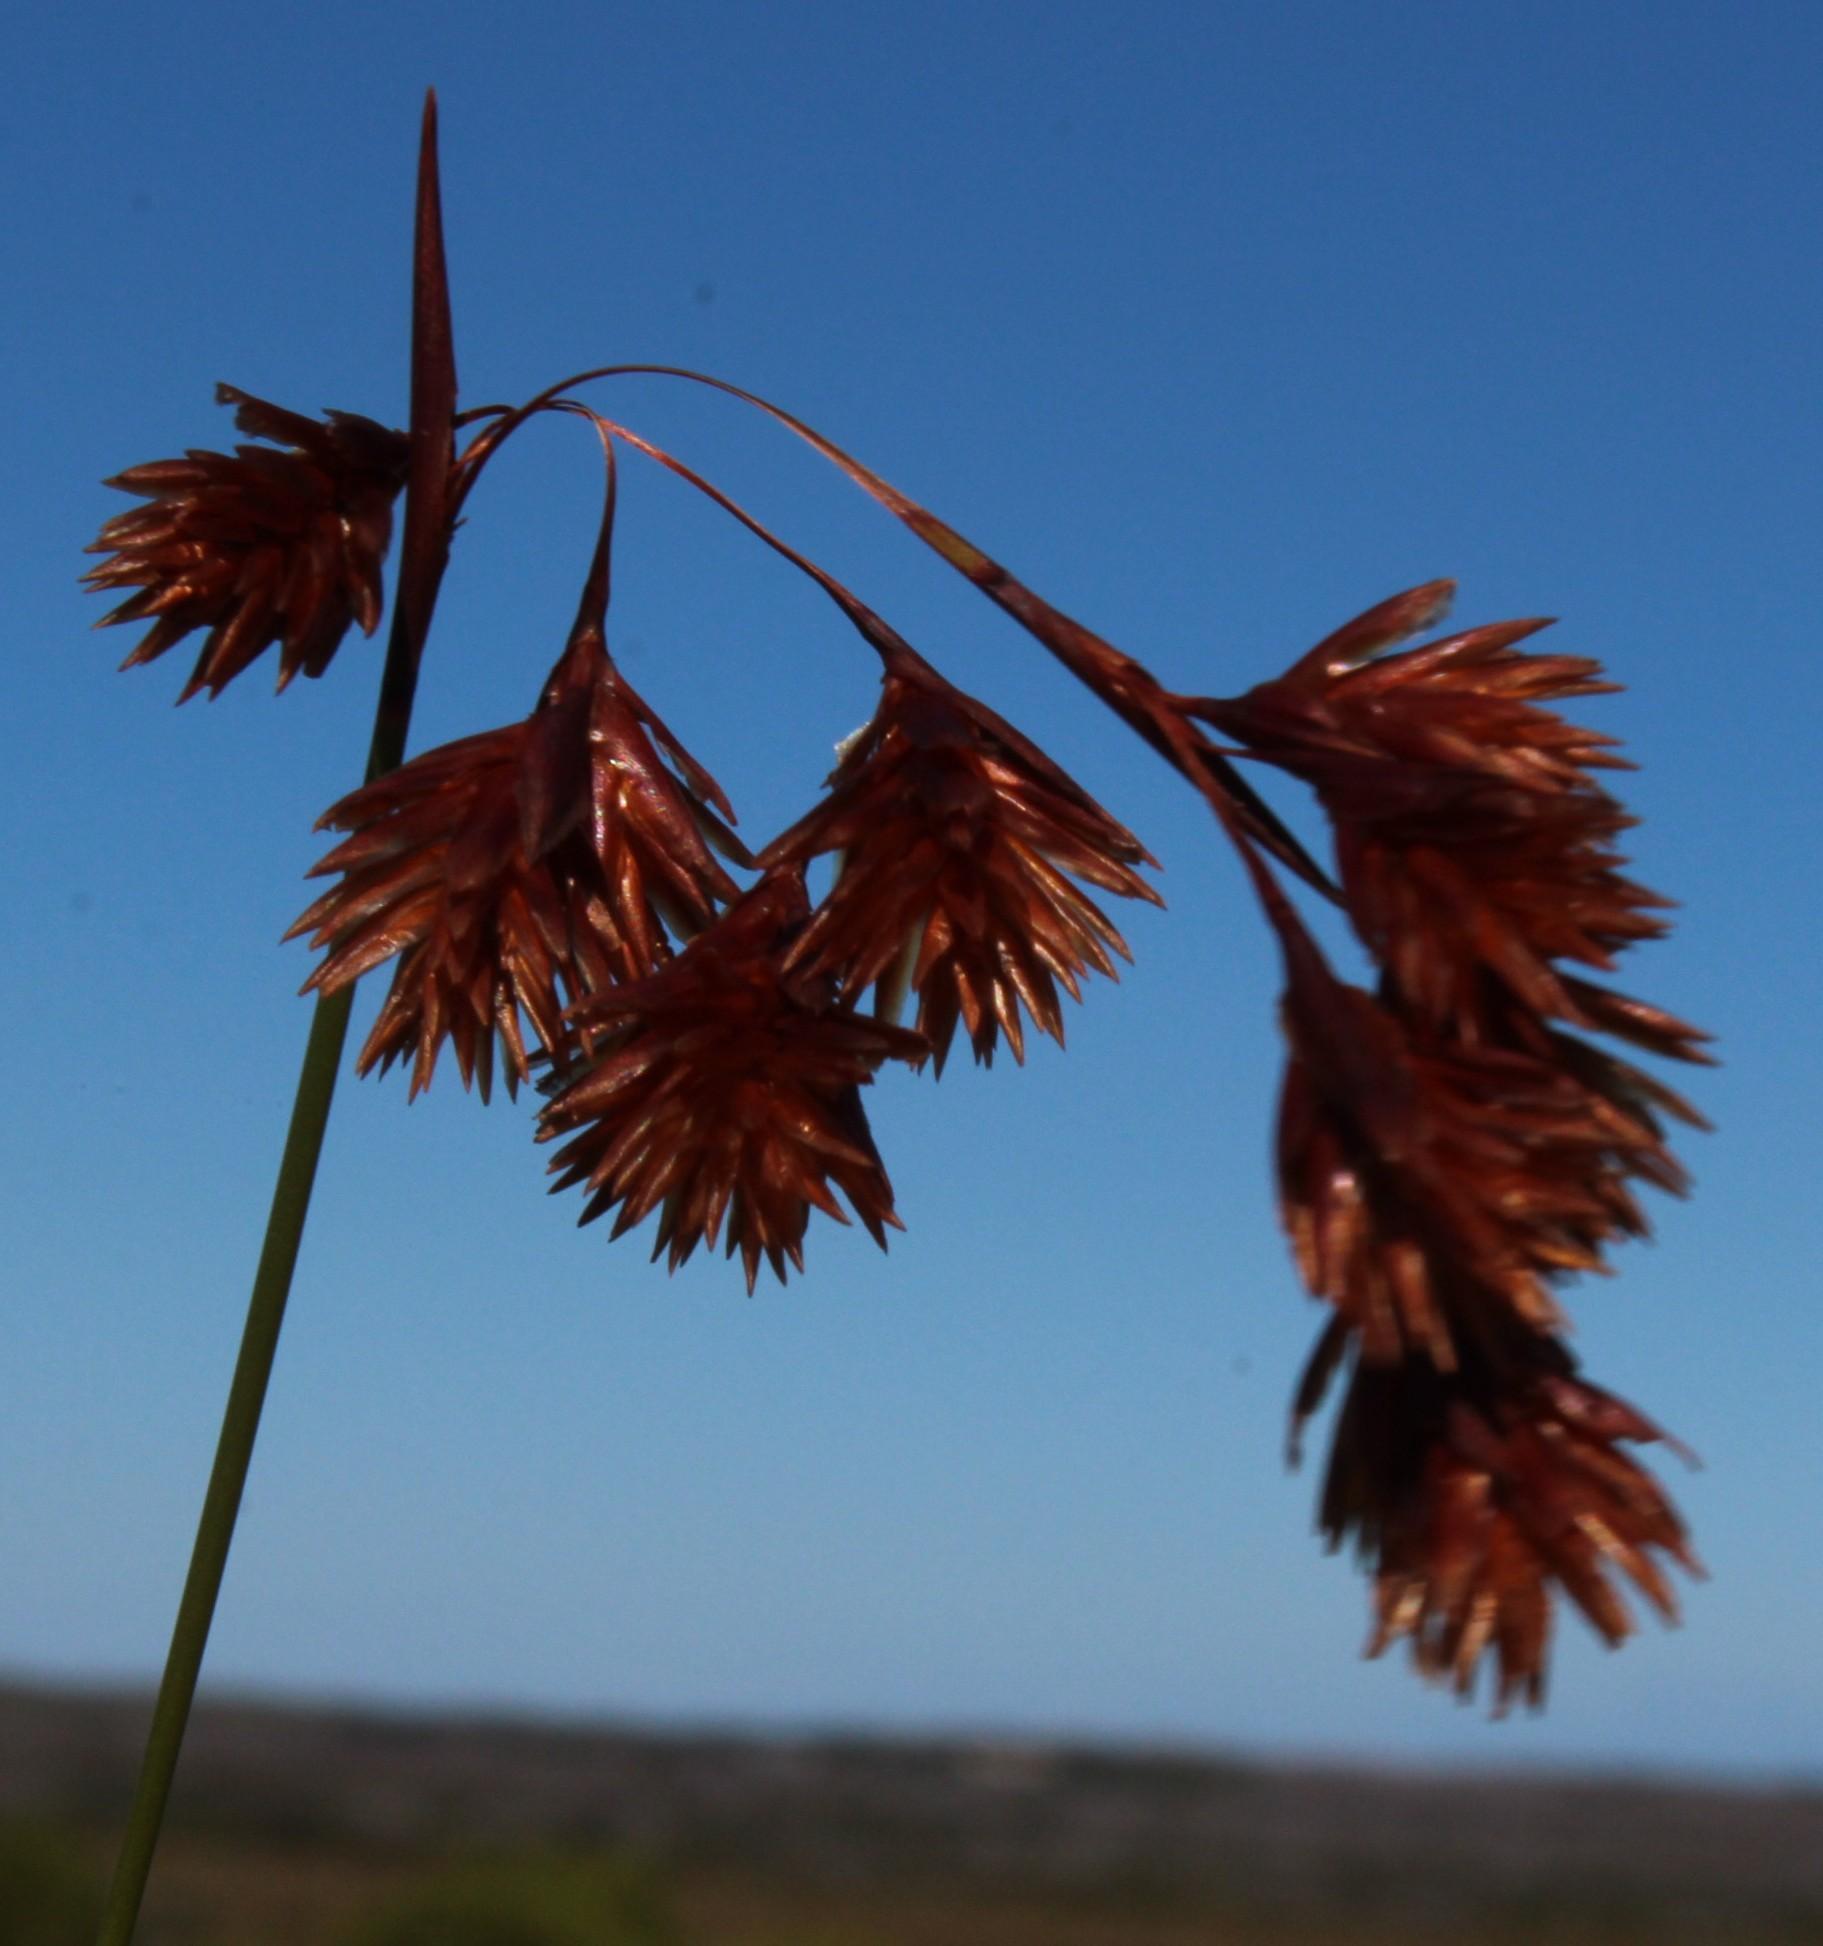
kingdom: Plantae
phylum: Tracheophyta
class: Liliopsida
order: Poales
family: Restionaceae
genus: Staberoha
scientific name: Staberoha distachyos
